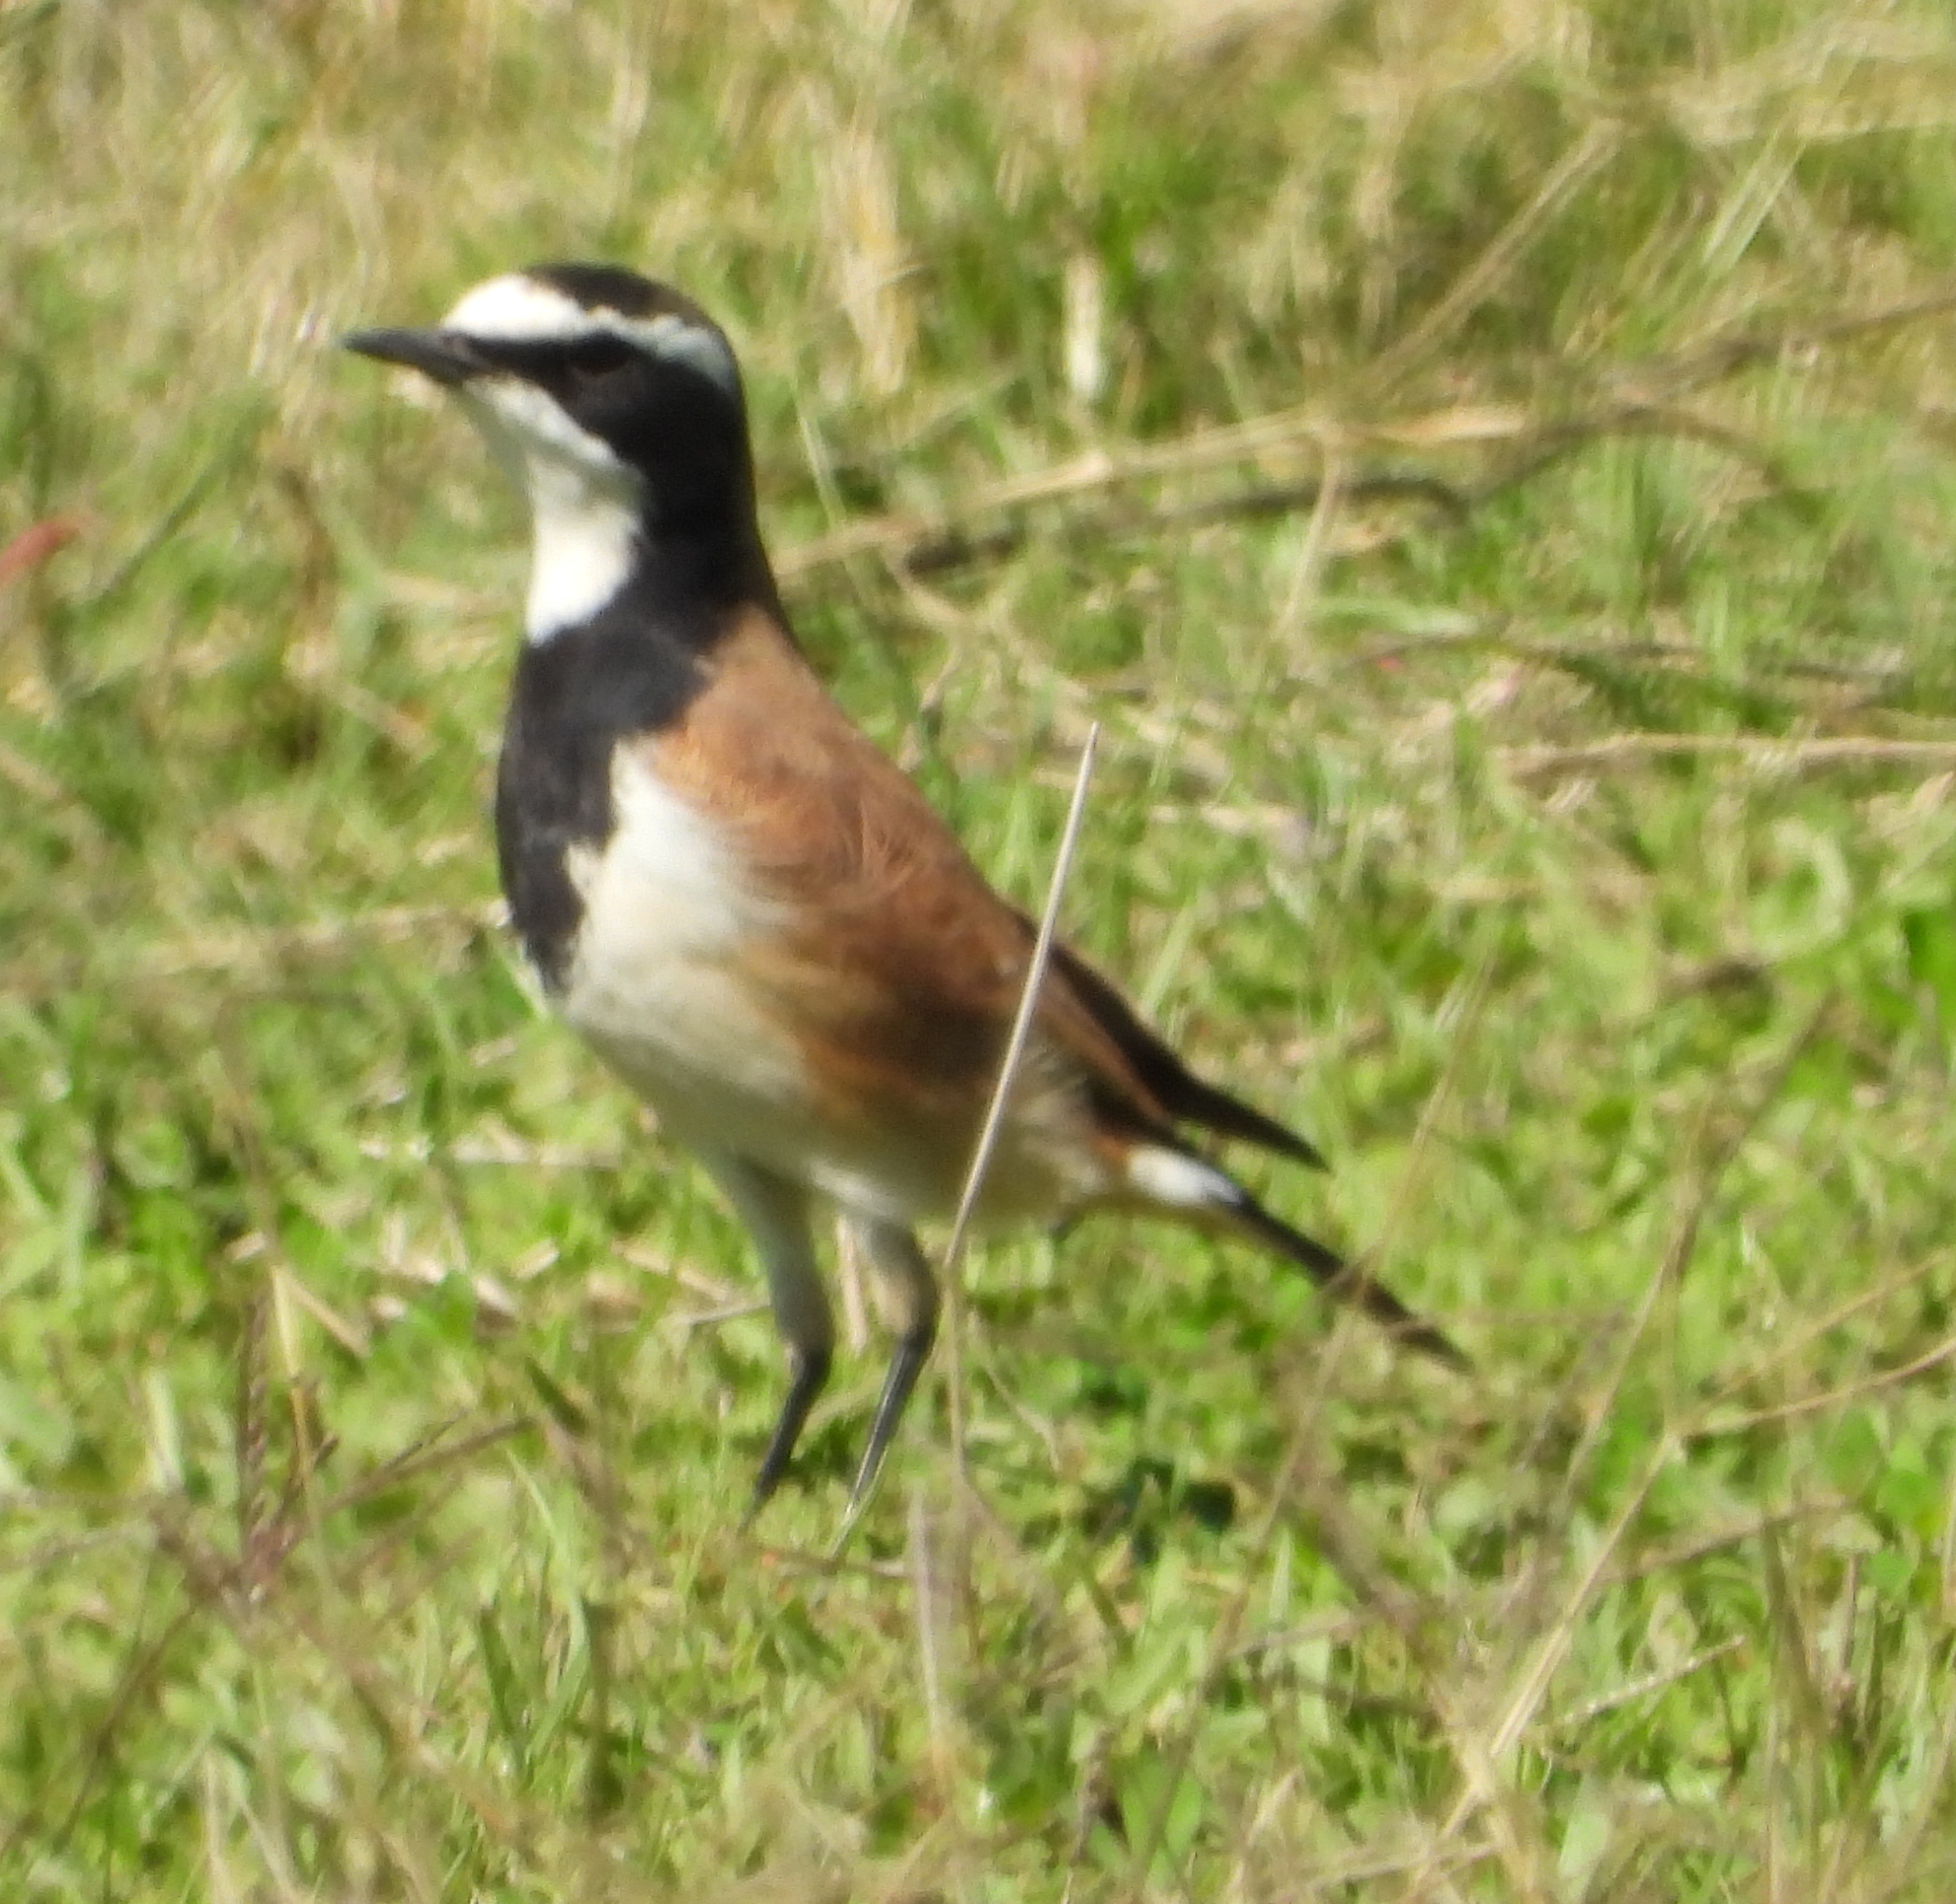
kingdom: Animalia
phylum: Chordata
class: Aves
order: Passeriformes
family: Muscicapidae
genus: Oenanthe
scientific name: Oenanthe pileata
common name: Capped wheatear
